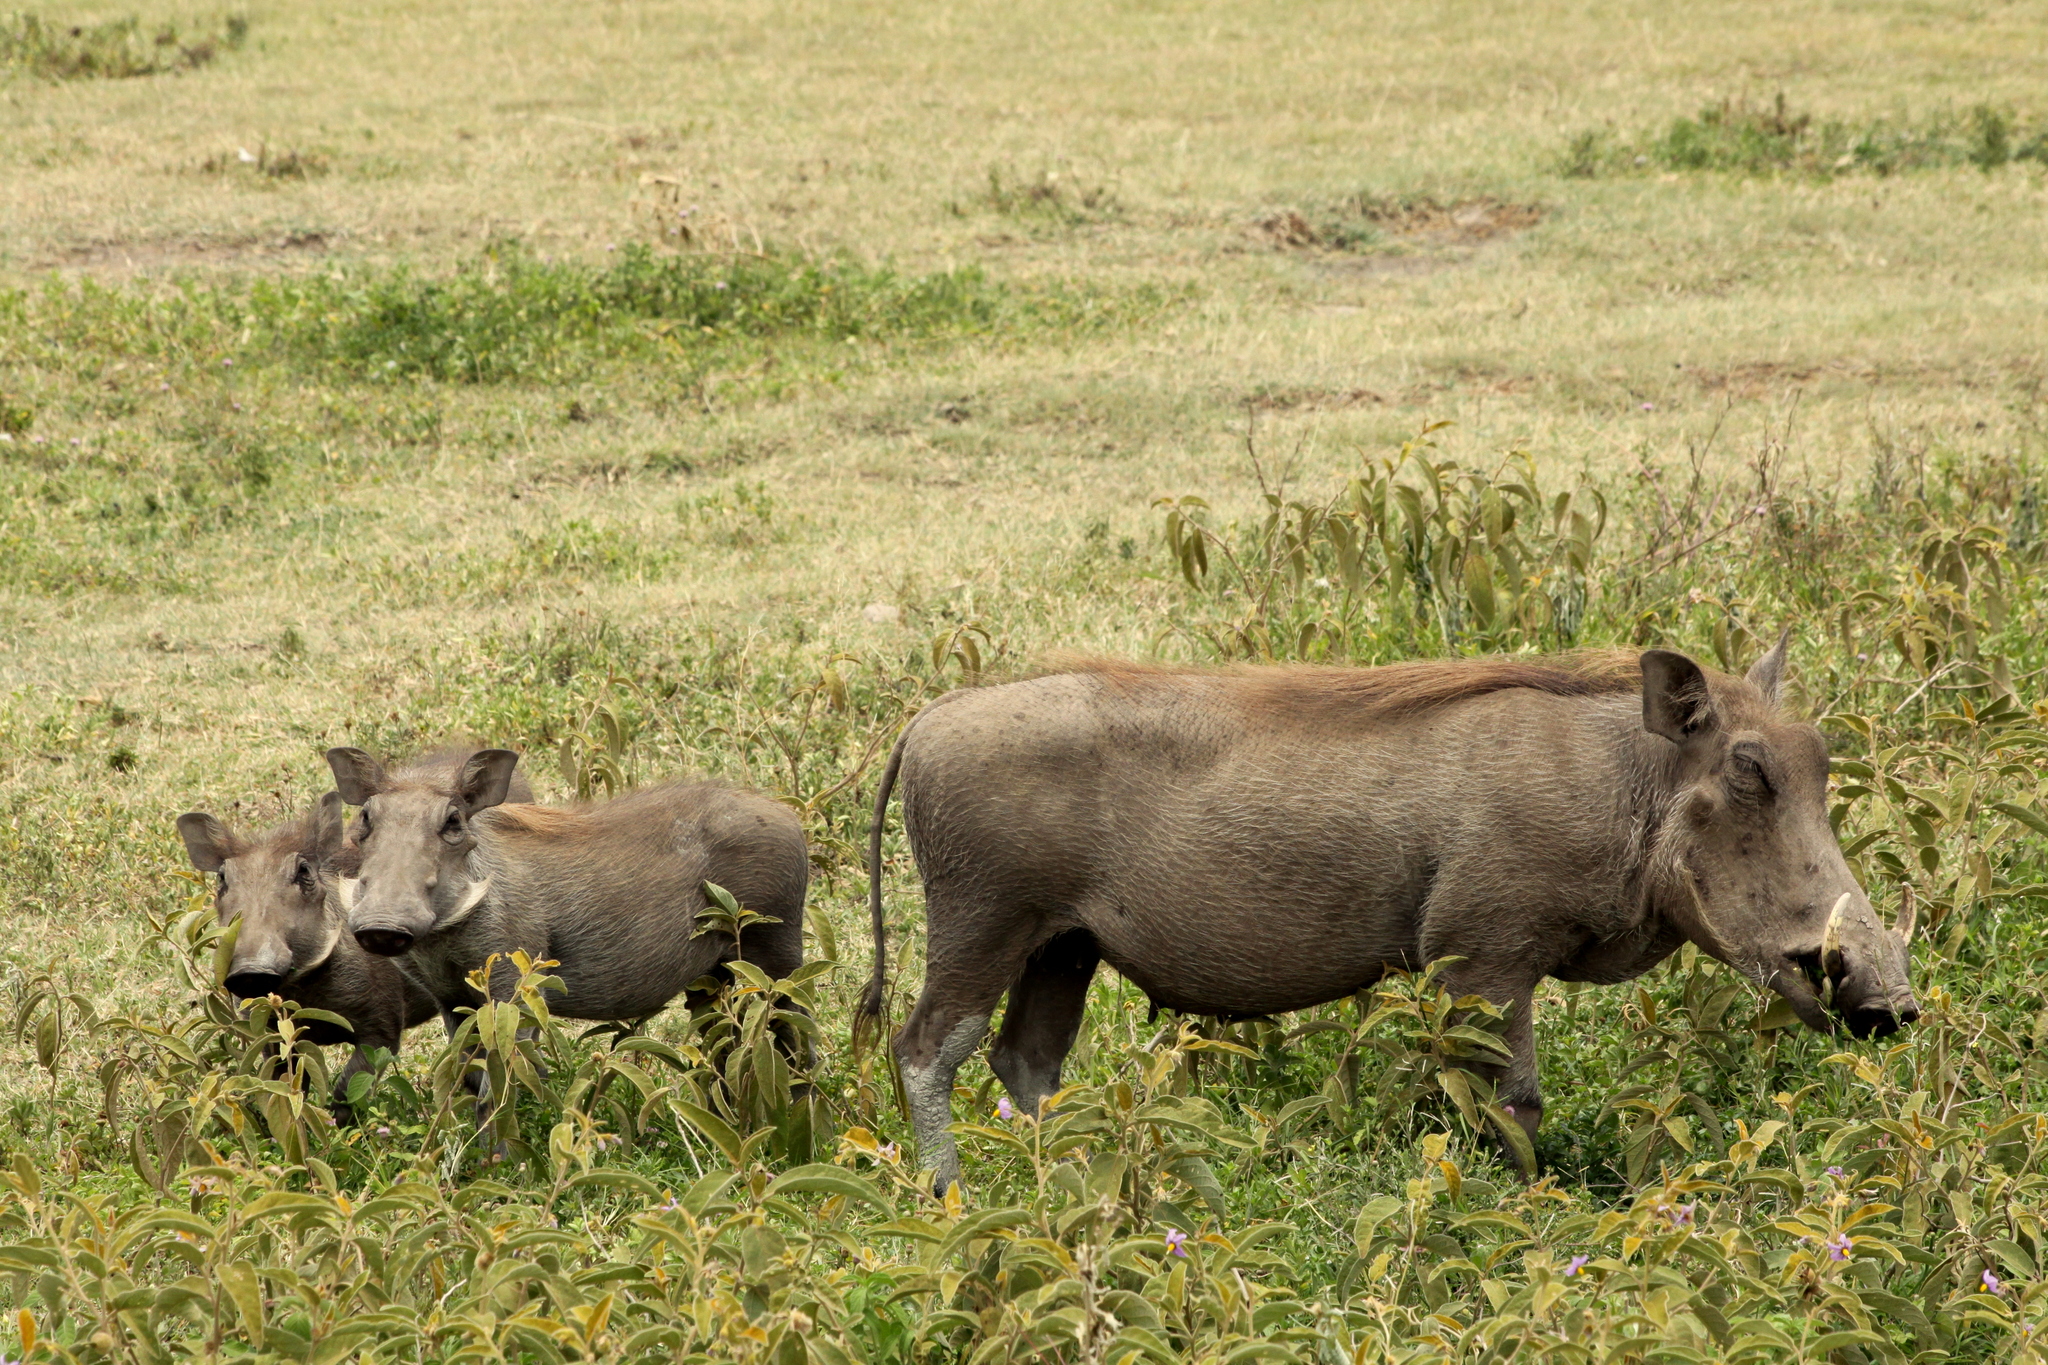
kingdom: Animalia
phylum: Chordata
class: Mammalia
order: Artiodactyla
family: Suidae
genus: Phacochoerus
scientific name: Phacochoerus africanus
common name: Common warthog
